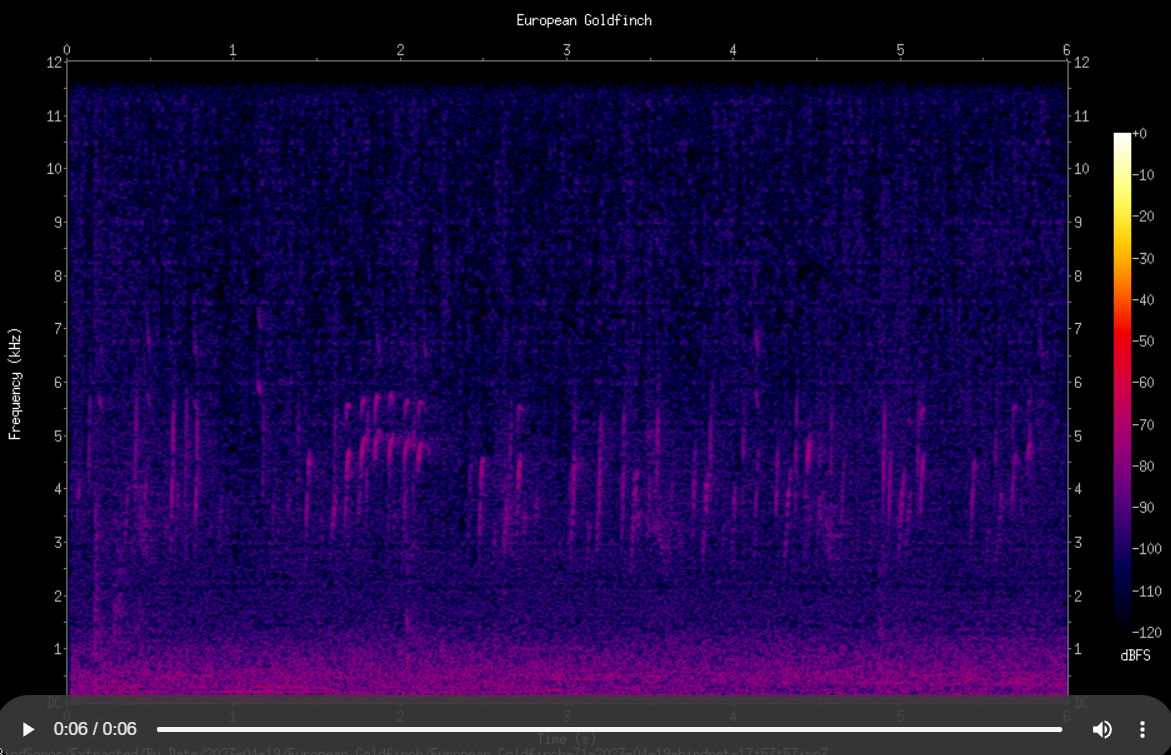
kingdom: Animalia
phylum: Chordata
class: Aves
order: Passeriformes
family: Fringillidae
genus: Carduelis
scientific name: Carduelis carduelis
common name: European goldfinch
